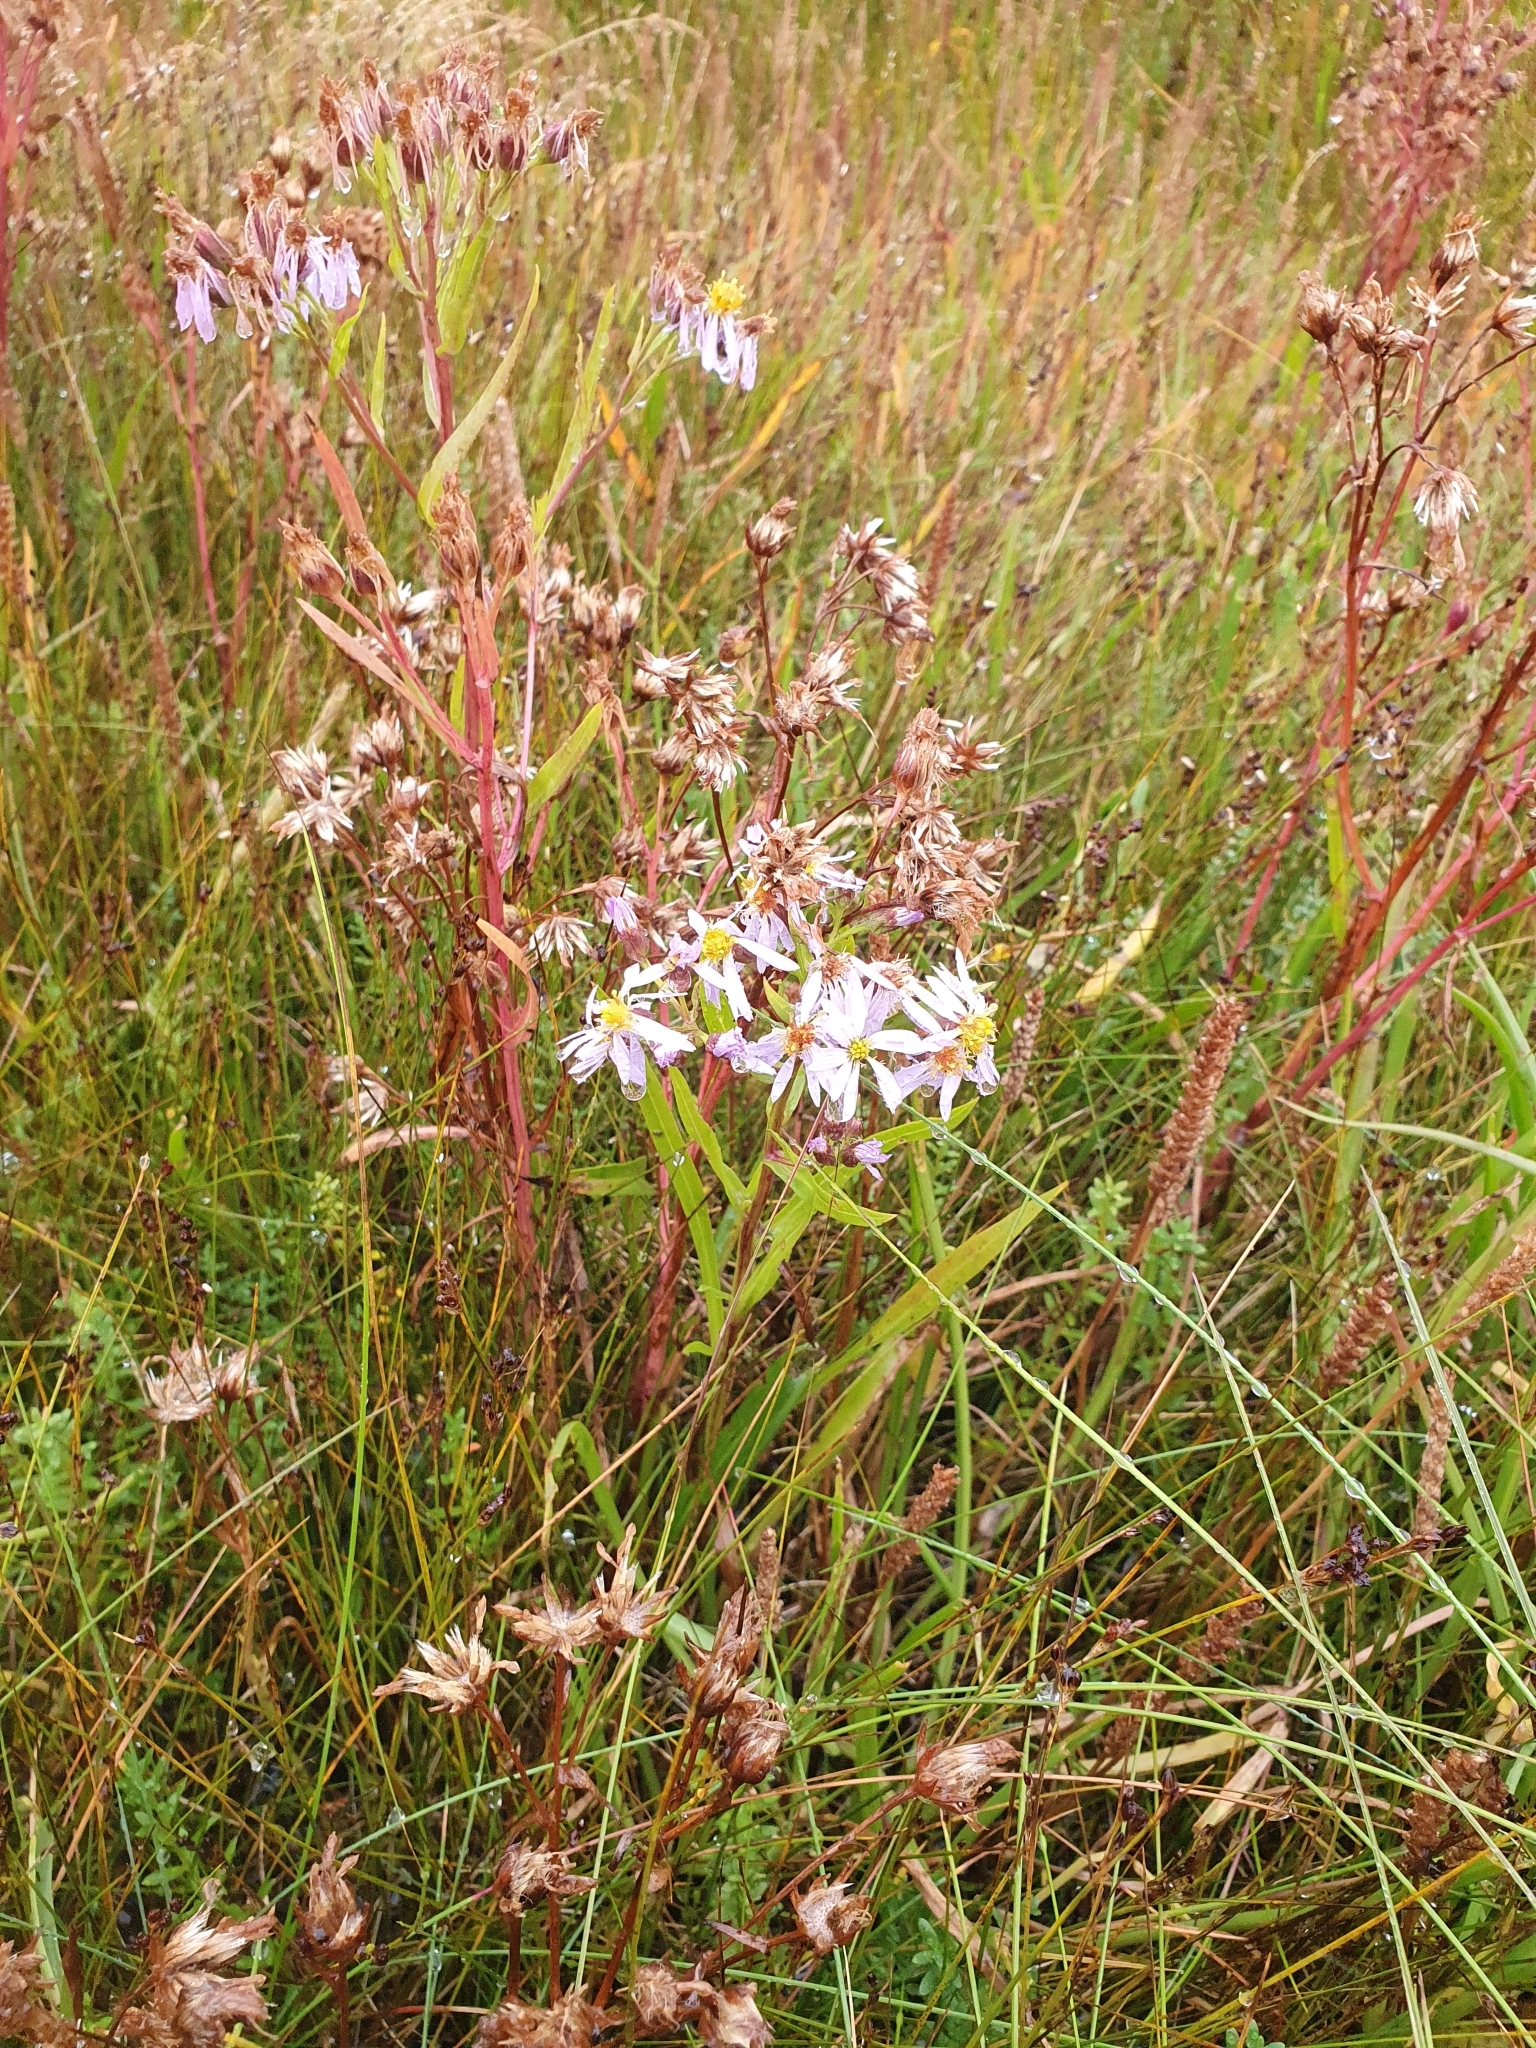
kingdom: Plantae
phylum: Tracheophyta
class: Magnoliopsida
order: Asterales
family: Asteraceae
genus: Tripolium
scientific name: Tripolium pannonicum
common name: Sea aster
